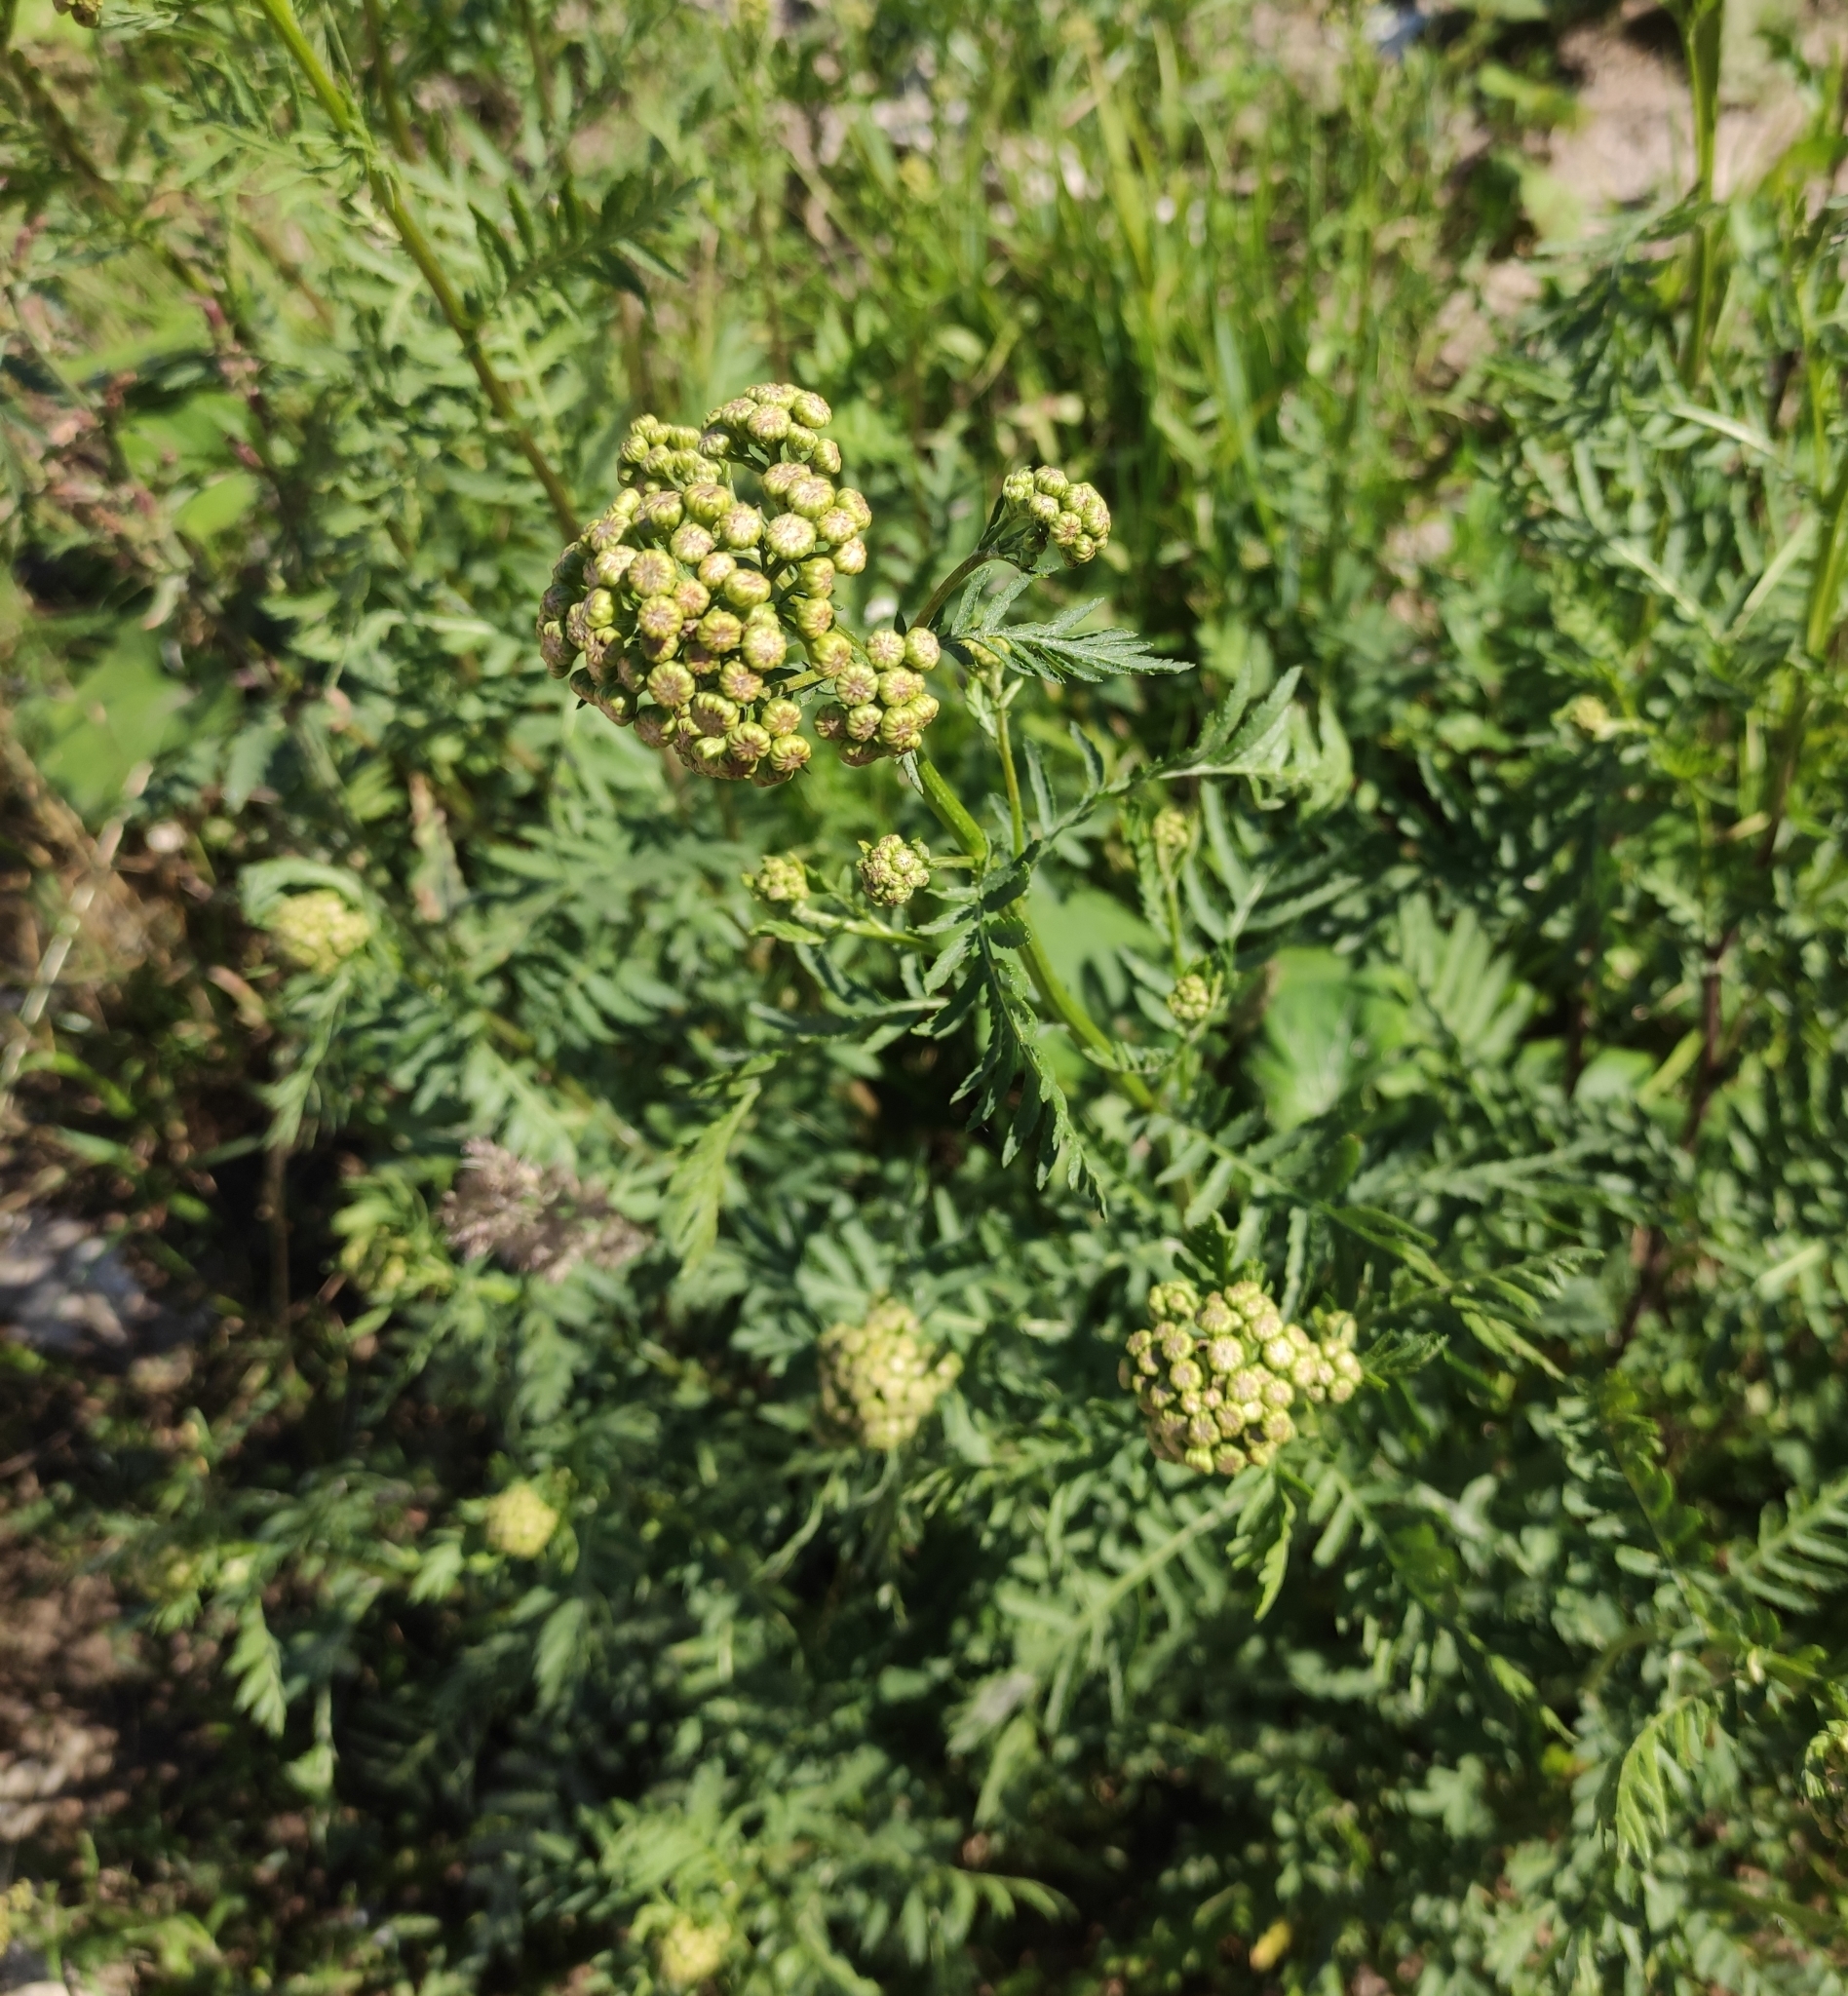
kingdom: Plantae
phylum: Tracheophyta
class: Magnoliopsida
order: Asterales
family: Asteraceae
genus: Tanacetum
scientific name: Tanacetum vulgare
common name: Common tansy
